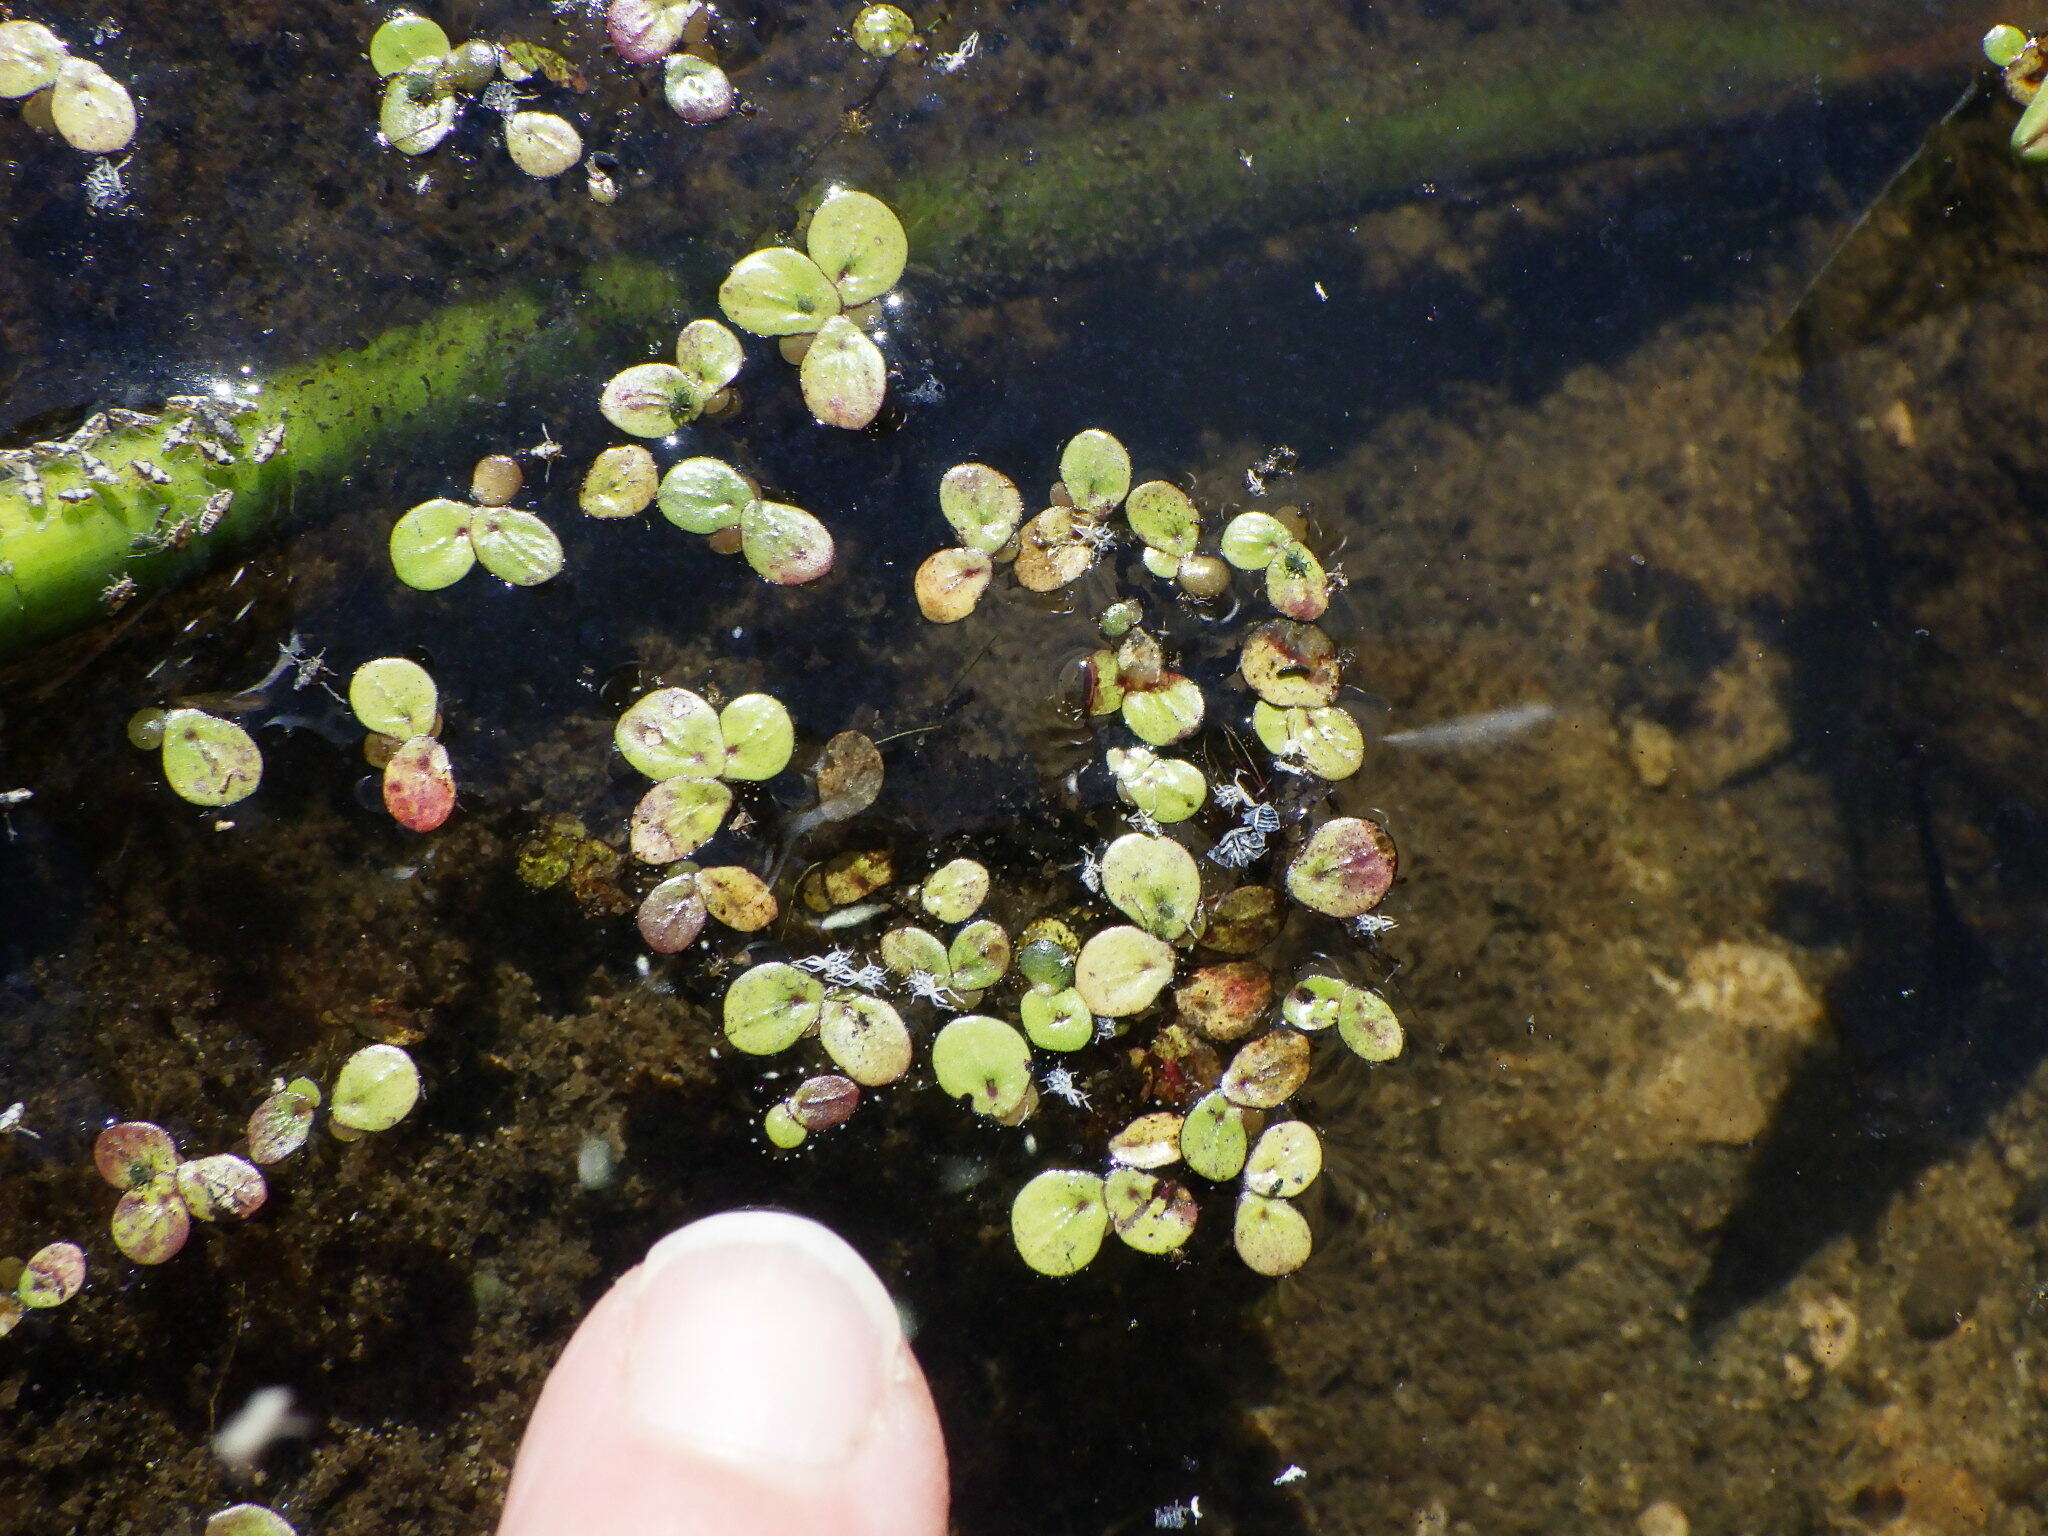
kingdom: Plantae
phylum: Tracheophyta
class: Liliopsida
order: Alismatales
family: Araceae
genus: Spirodela
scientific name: Spirodela polyrhiza
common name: Great duckweed
